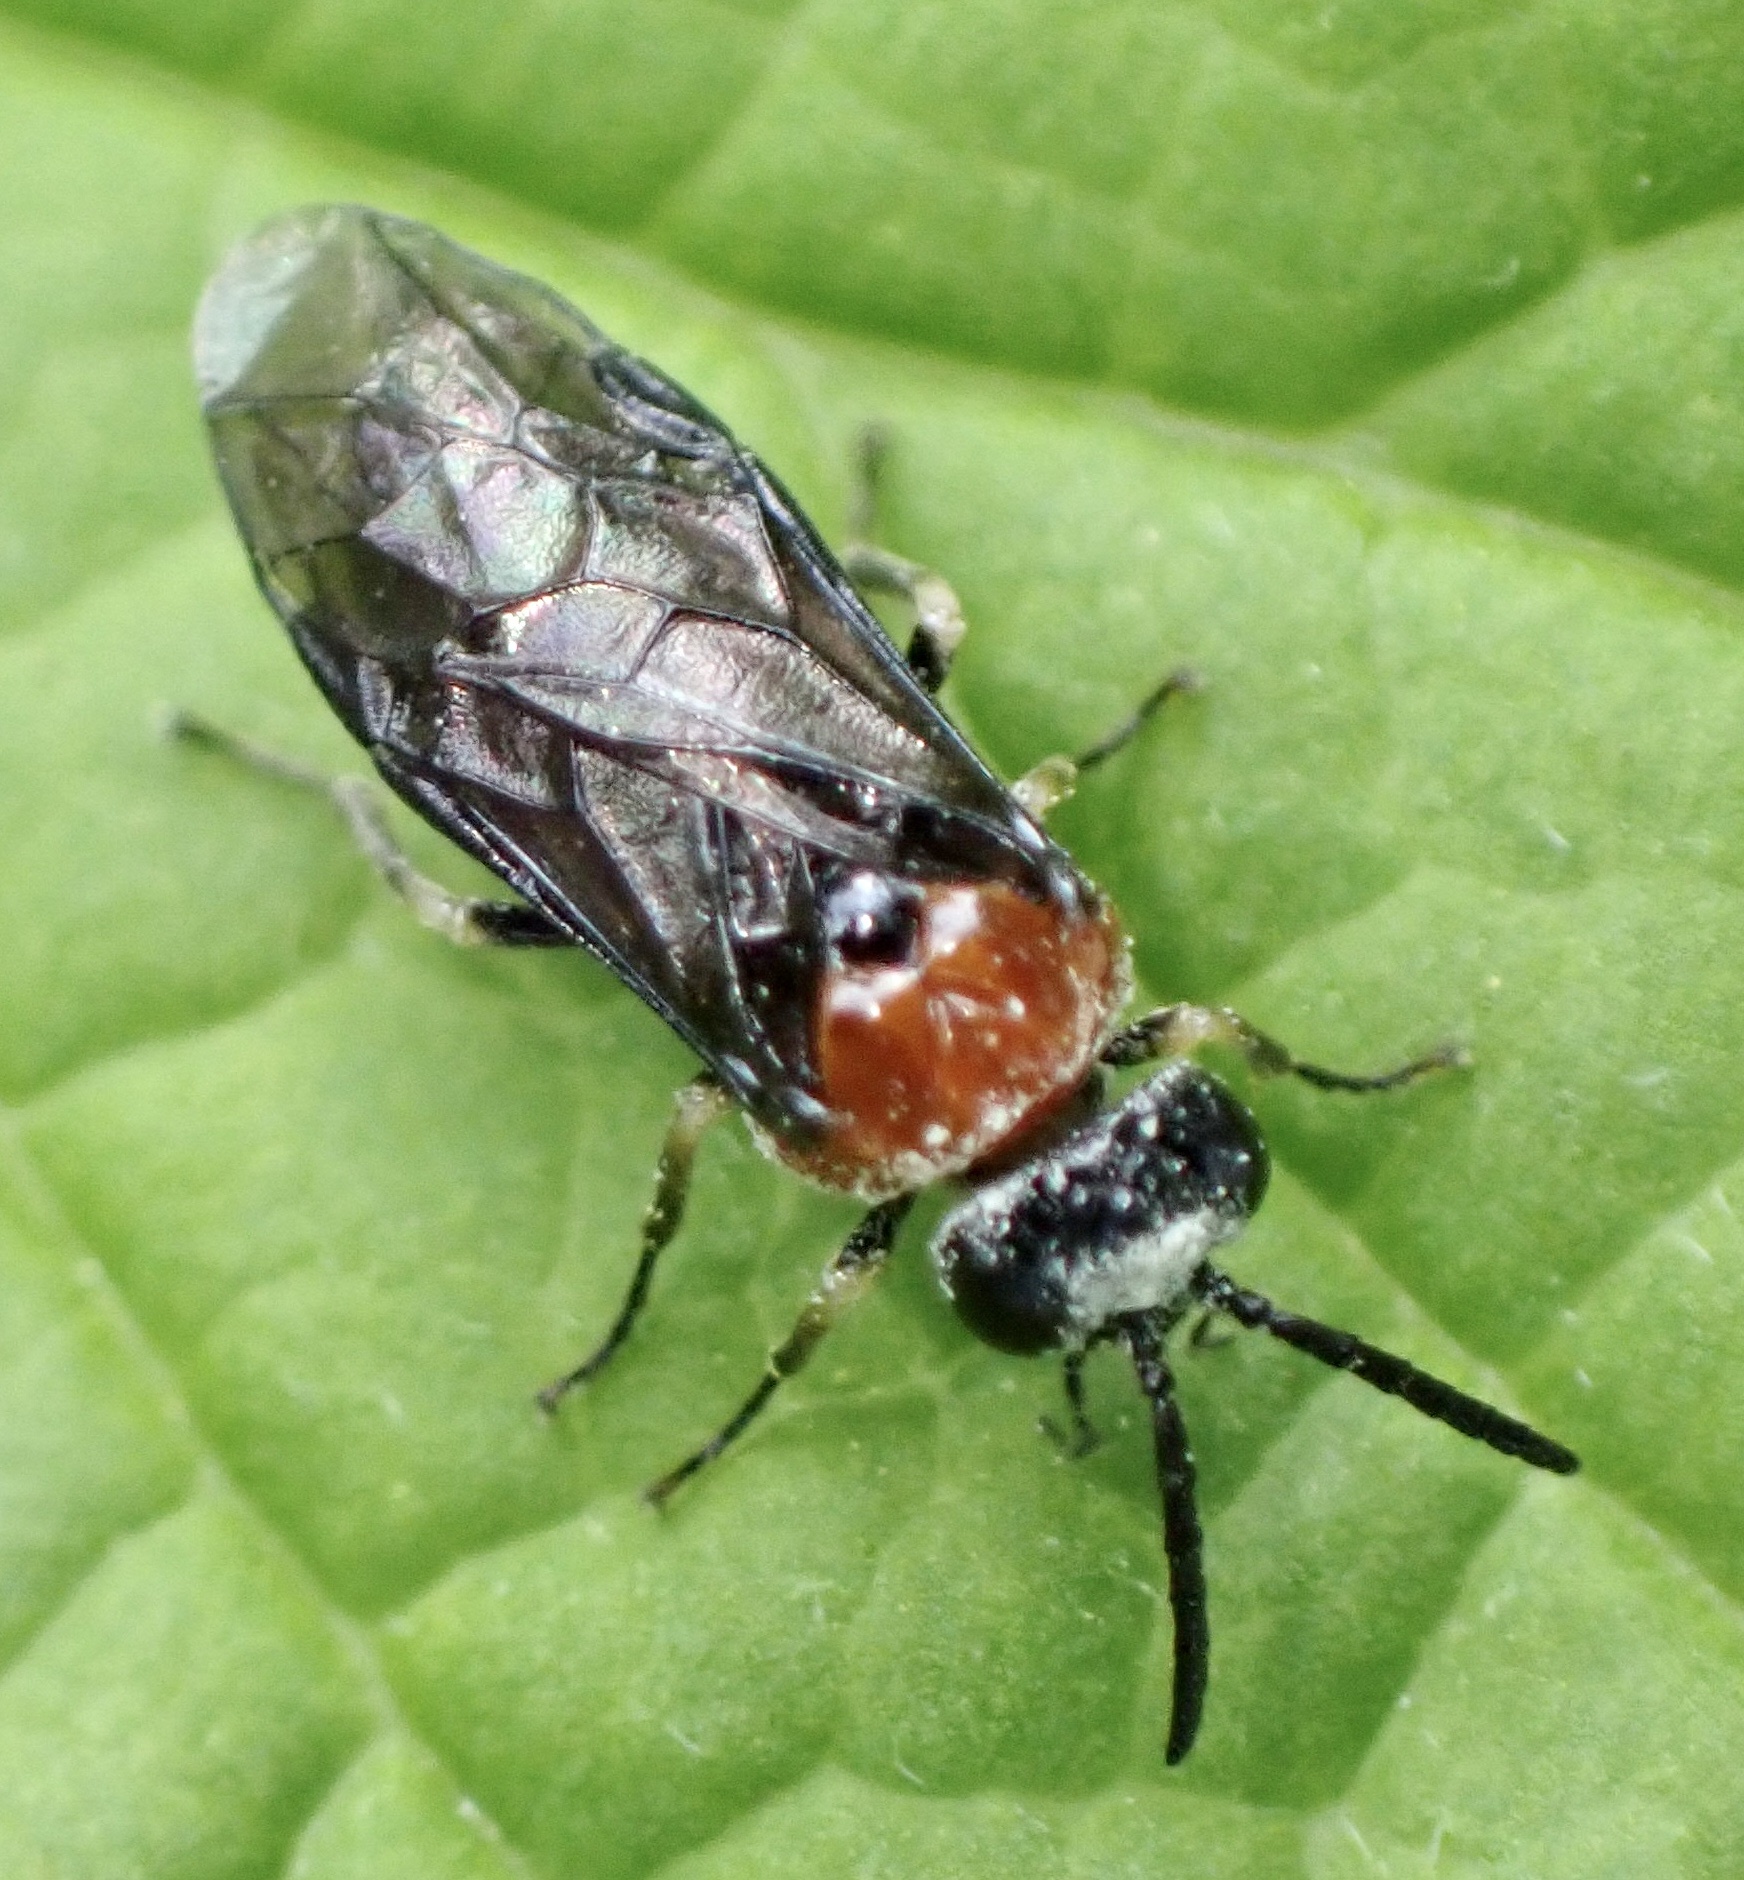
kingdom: Animalia
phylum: Arthropoda
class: Insecta
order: Hymenoptera
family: Tenthredinidae
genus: Eutomostethus
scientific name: Eutomostethus ephippium
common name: Tenthredid wasp
